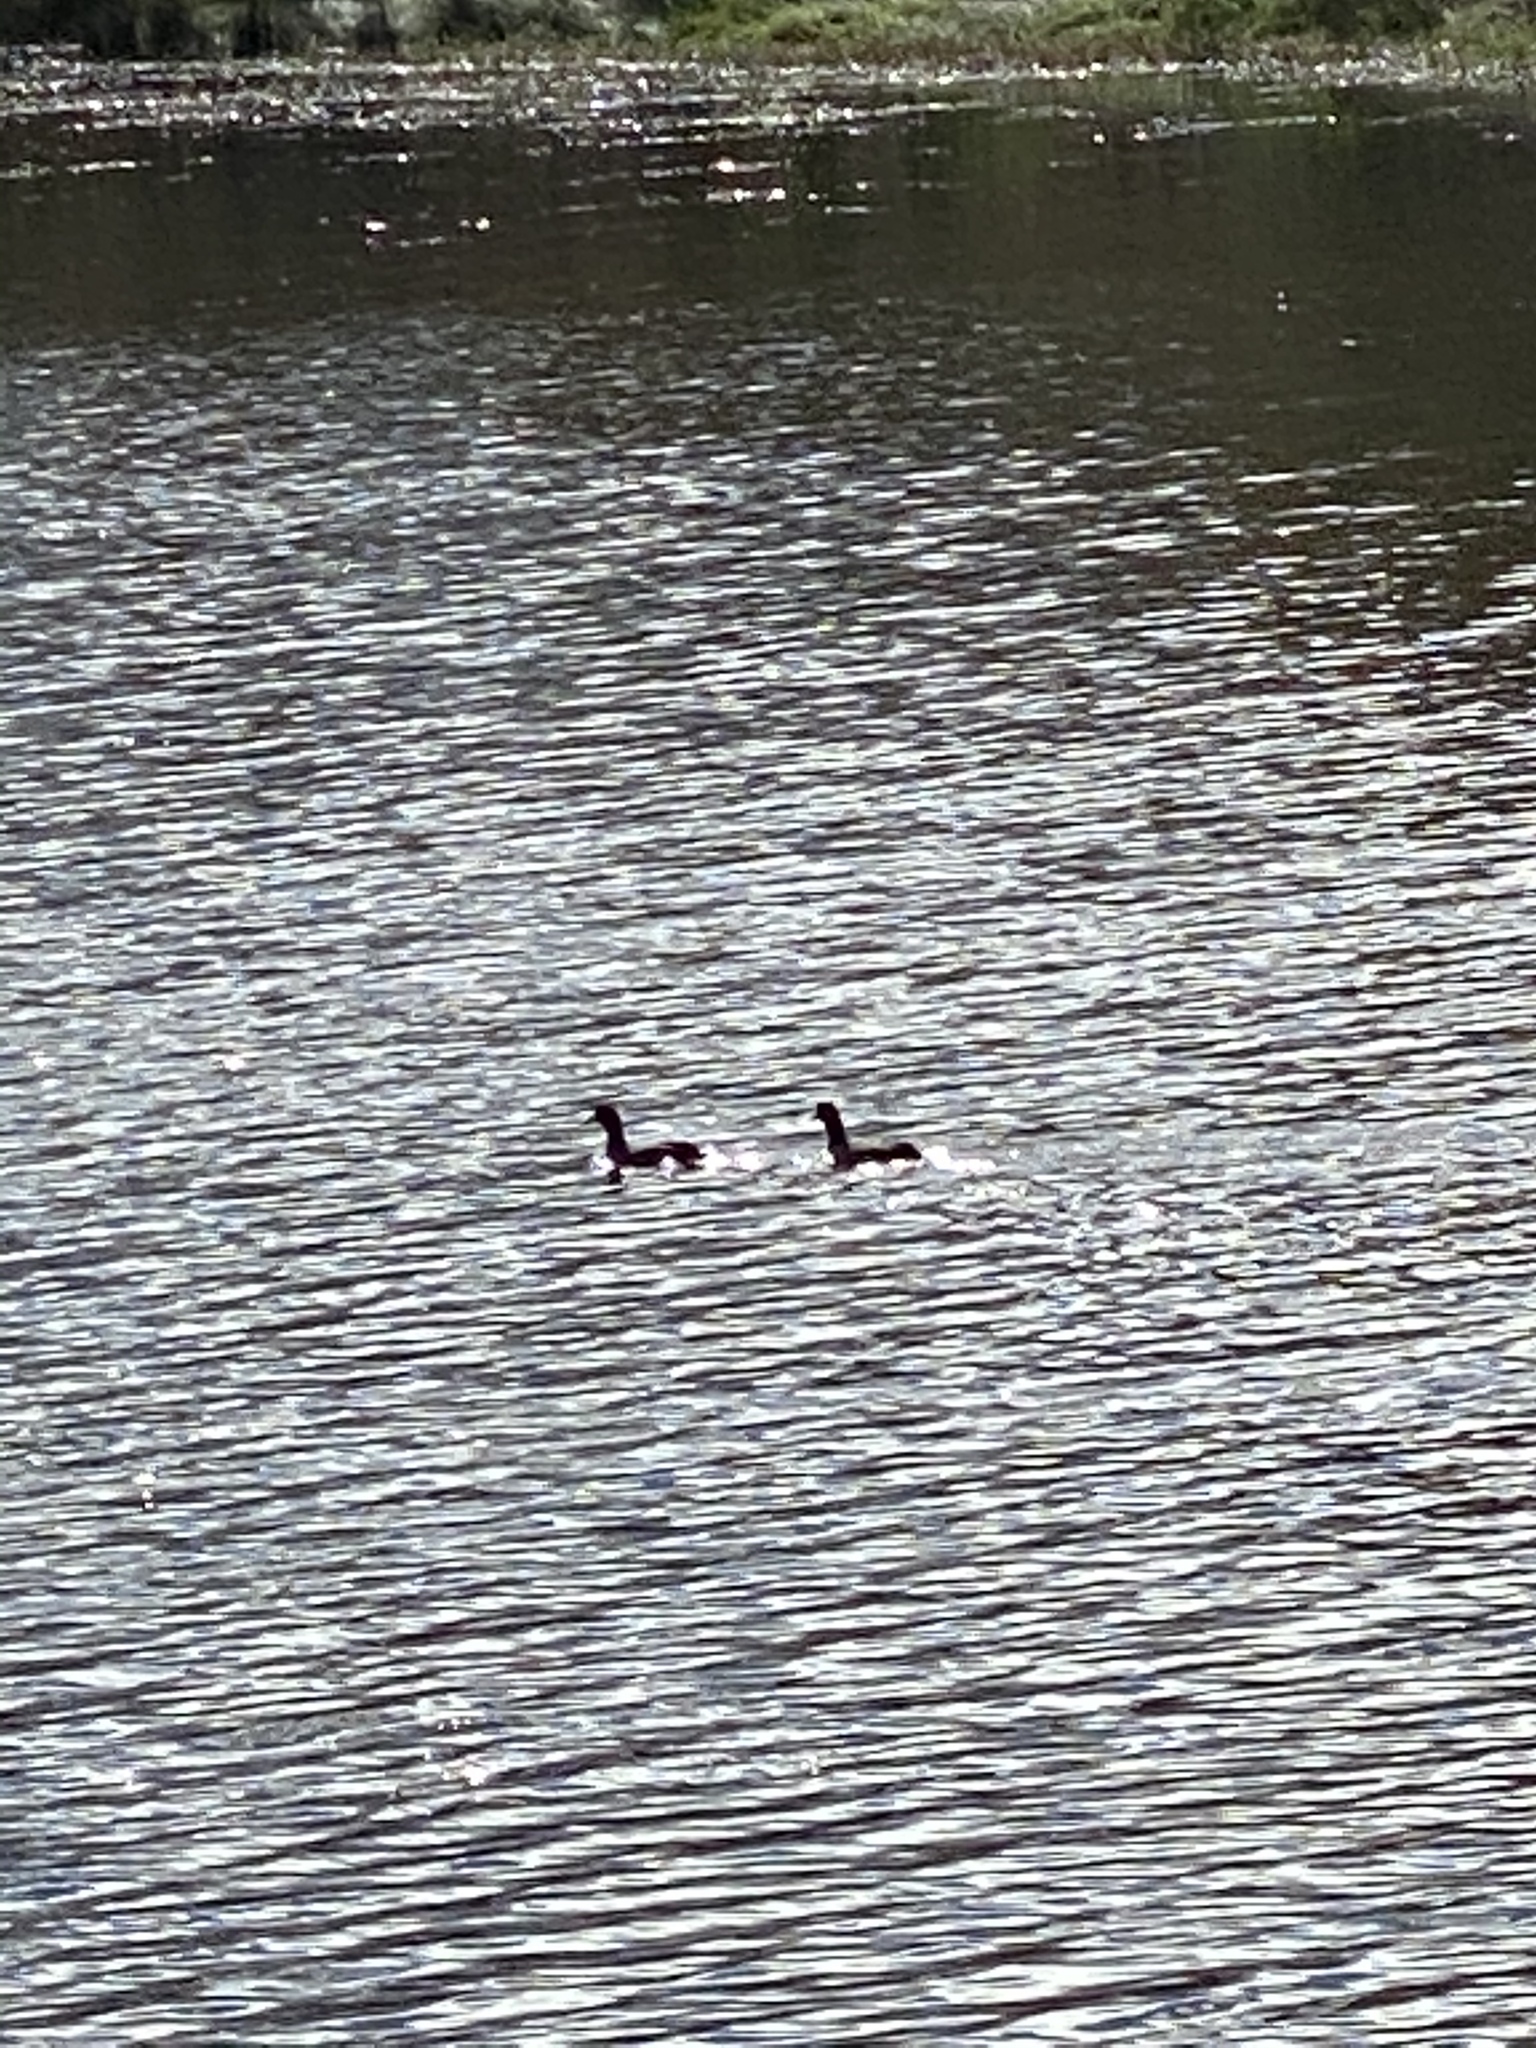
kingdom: Animalia
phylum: Chordata
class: Aves
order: Gruiformes
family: Rallidae
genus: Fulica
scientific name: Fulica americana
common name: American coot
